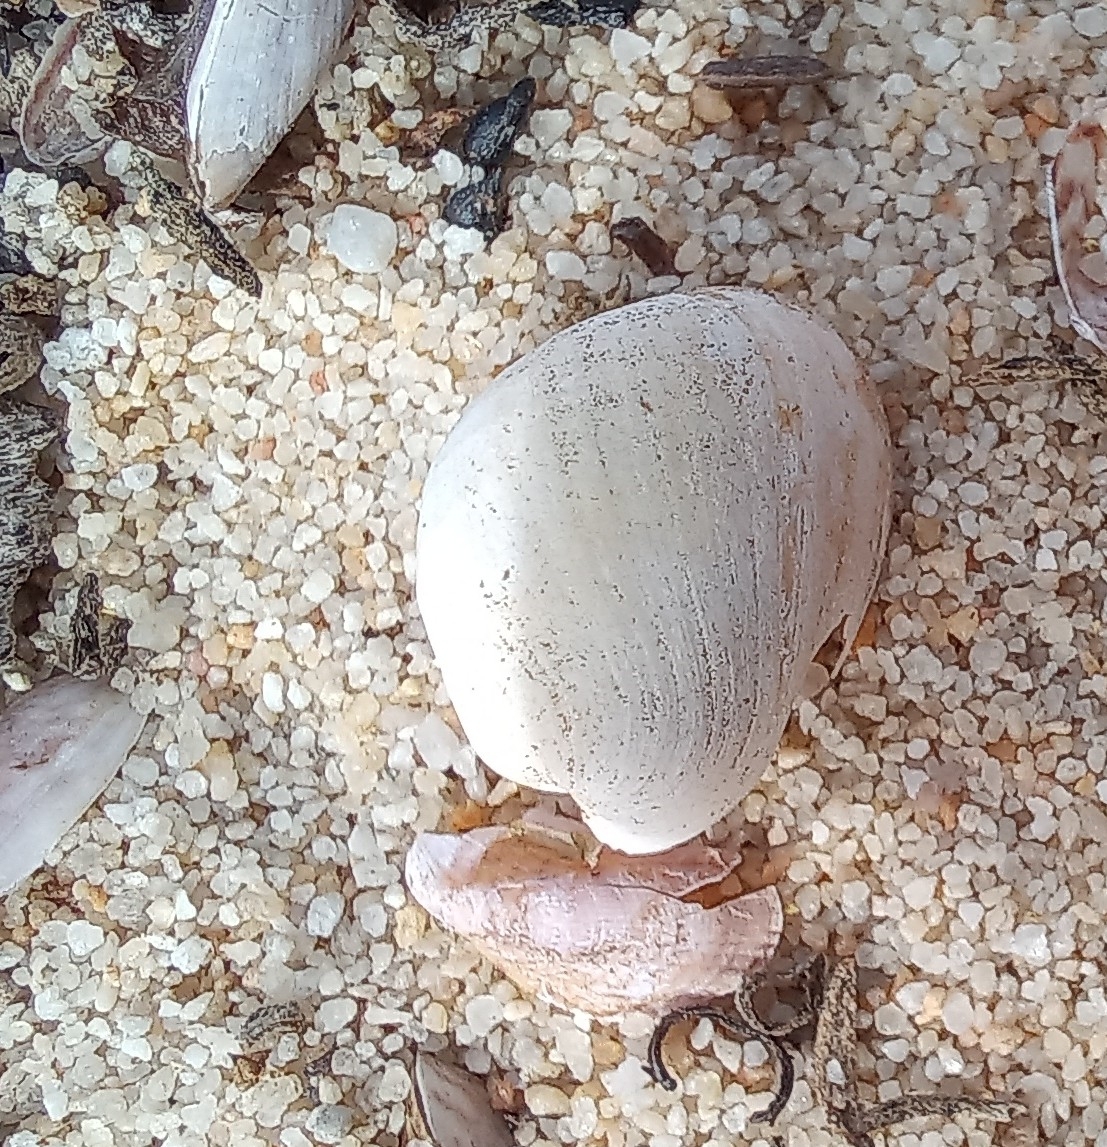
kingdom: Animalia
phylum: Mollusca
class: Gastropoda
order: Cephalaspidea
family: Haminoeidae
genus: Haminoea
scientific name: Haminoea natalensis
